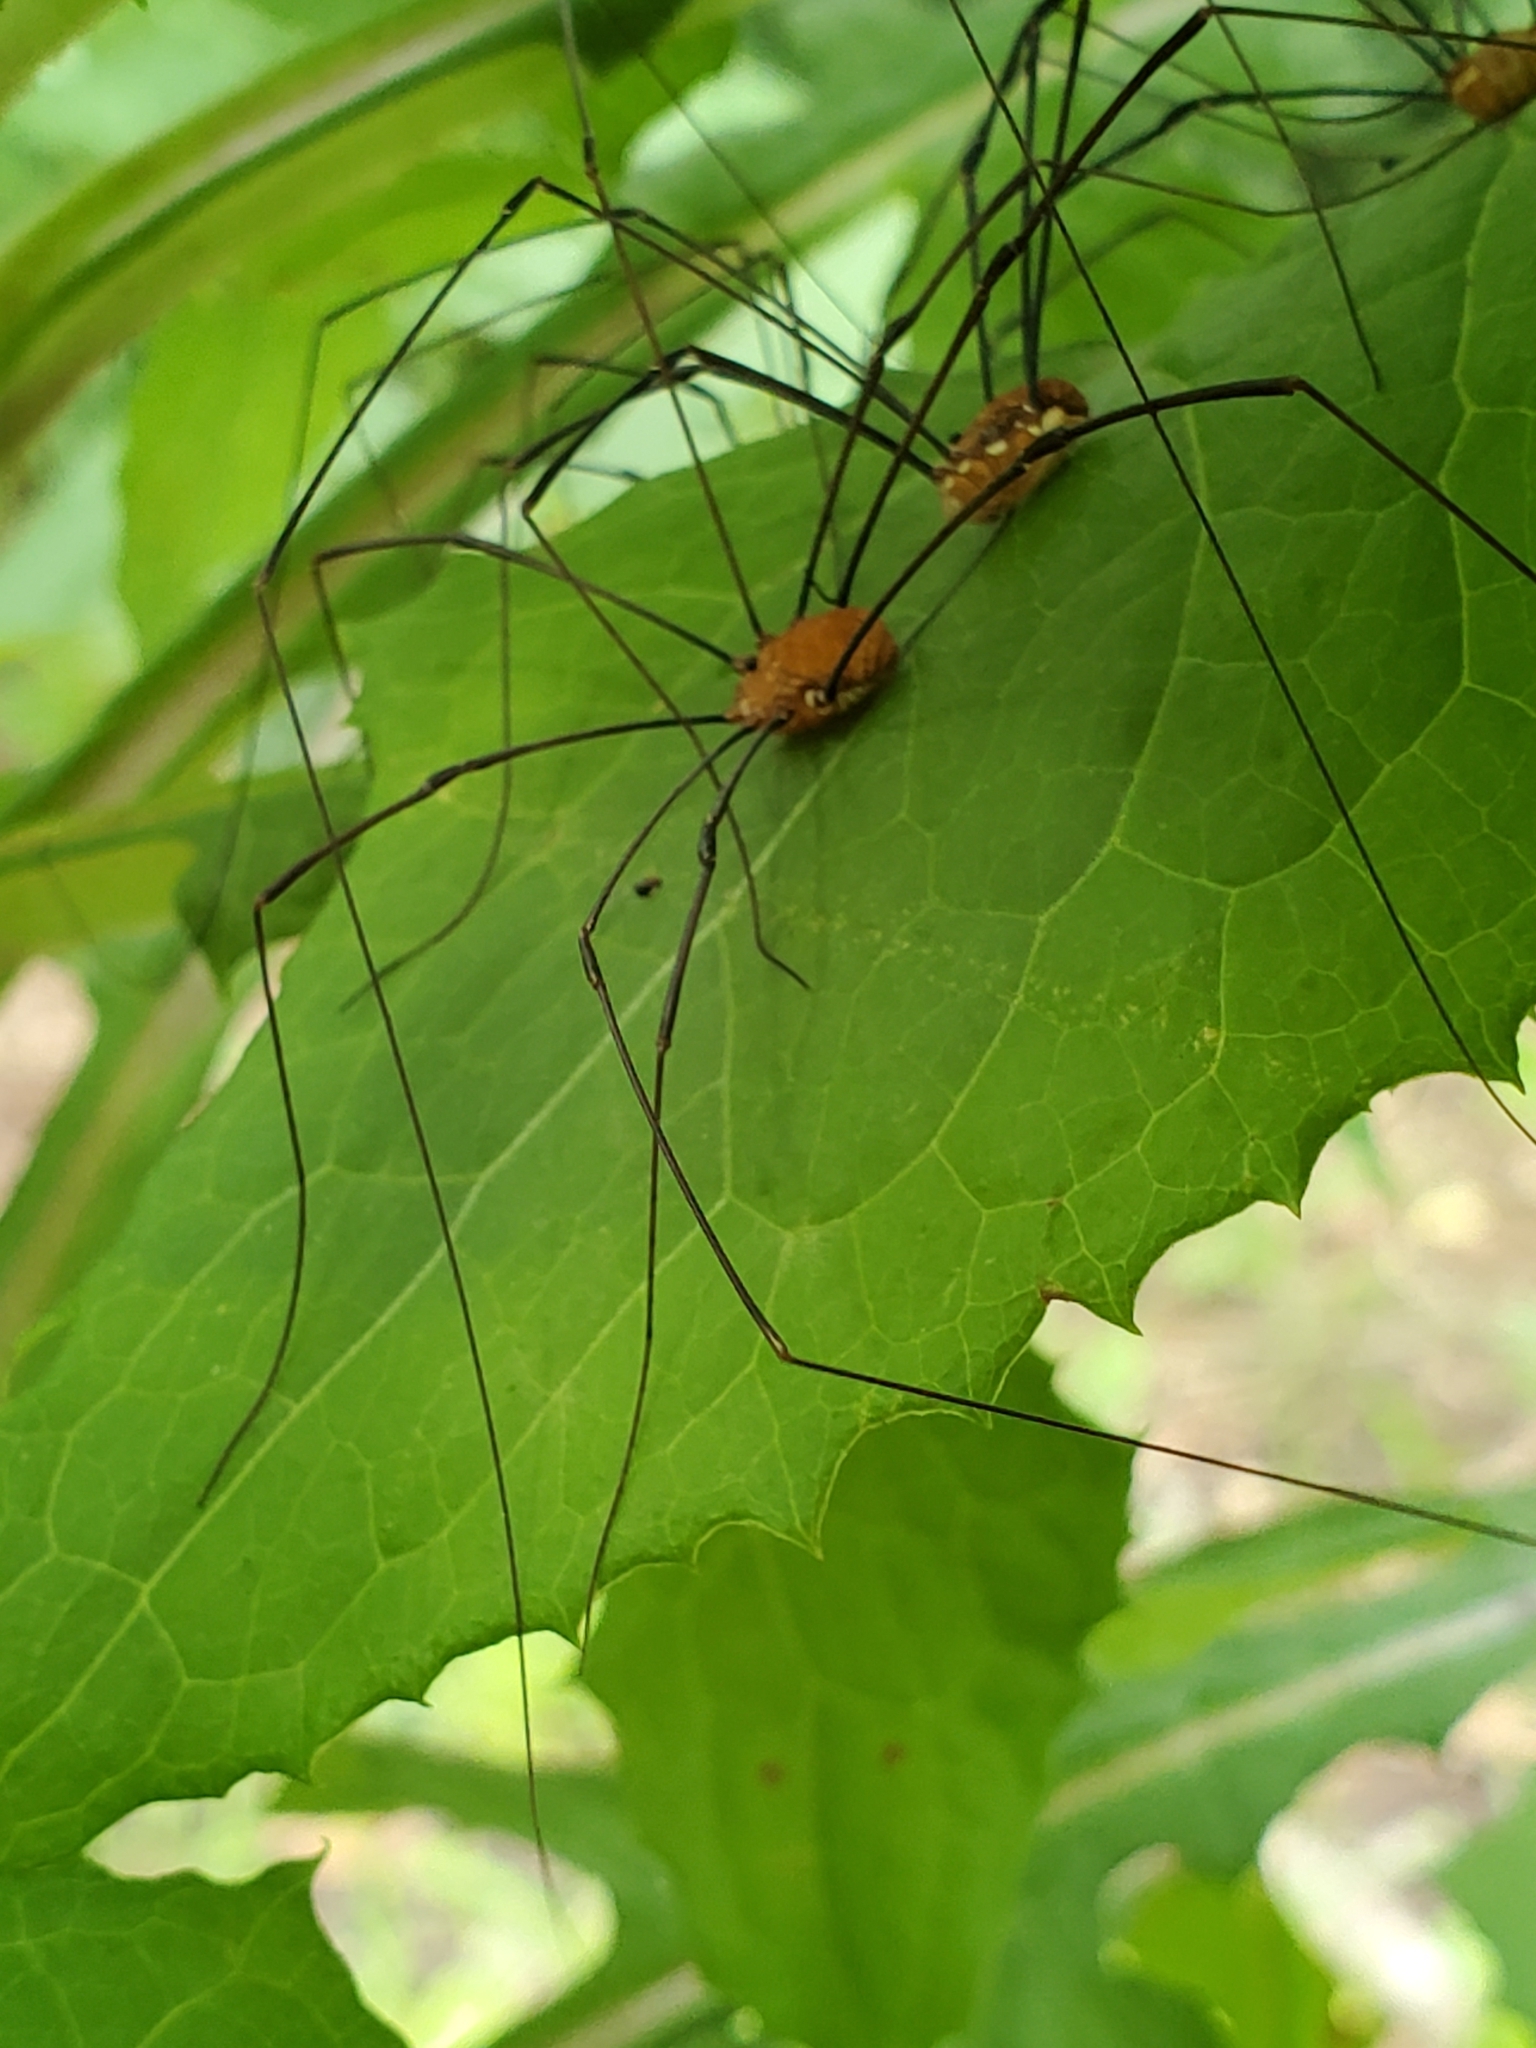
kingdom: Animalia
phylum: Arthropoda
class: Arachnida
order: Opiliones
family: Sclerosomatidae
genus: Leiobunum
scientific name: Leiobunum flavum
